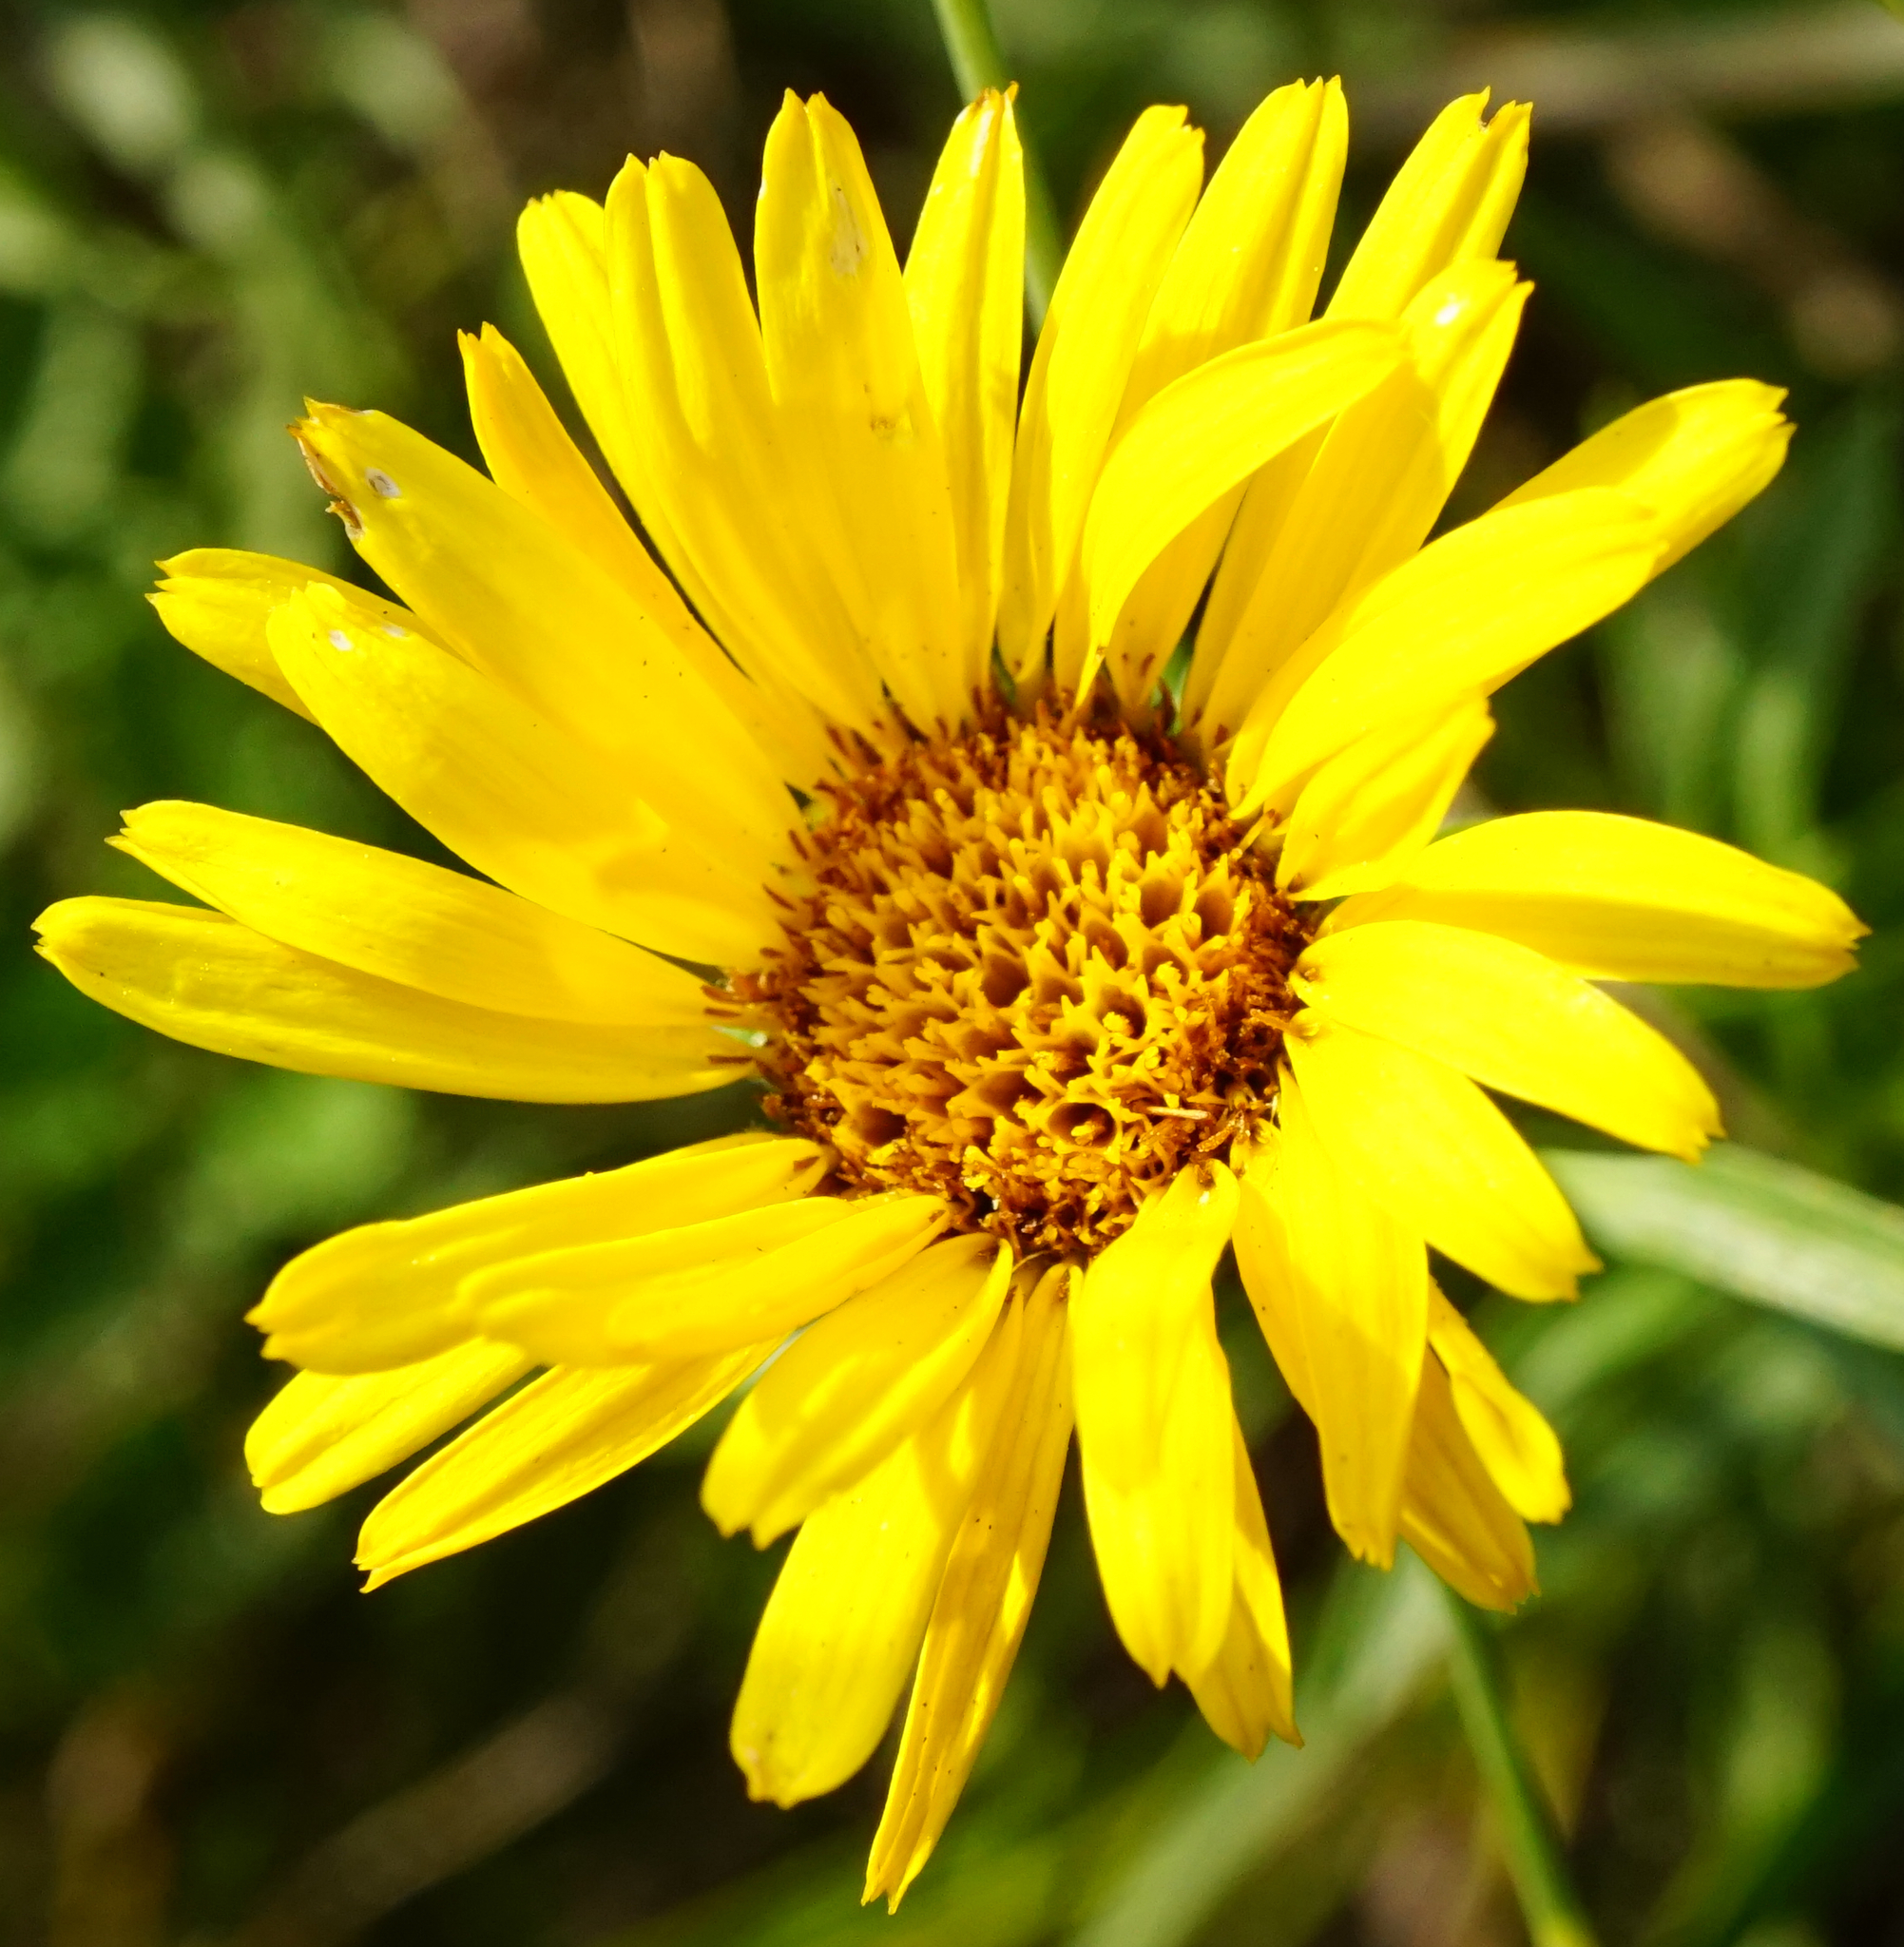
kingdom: Plantae
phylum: Tracheophyta
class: Magnoliopsida
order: Asterales
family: Asteraceae
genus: Pentanema
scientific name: Pentanema ensifolium
